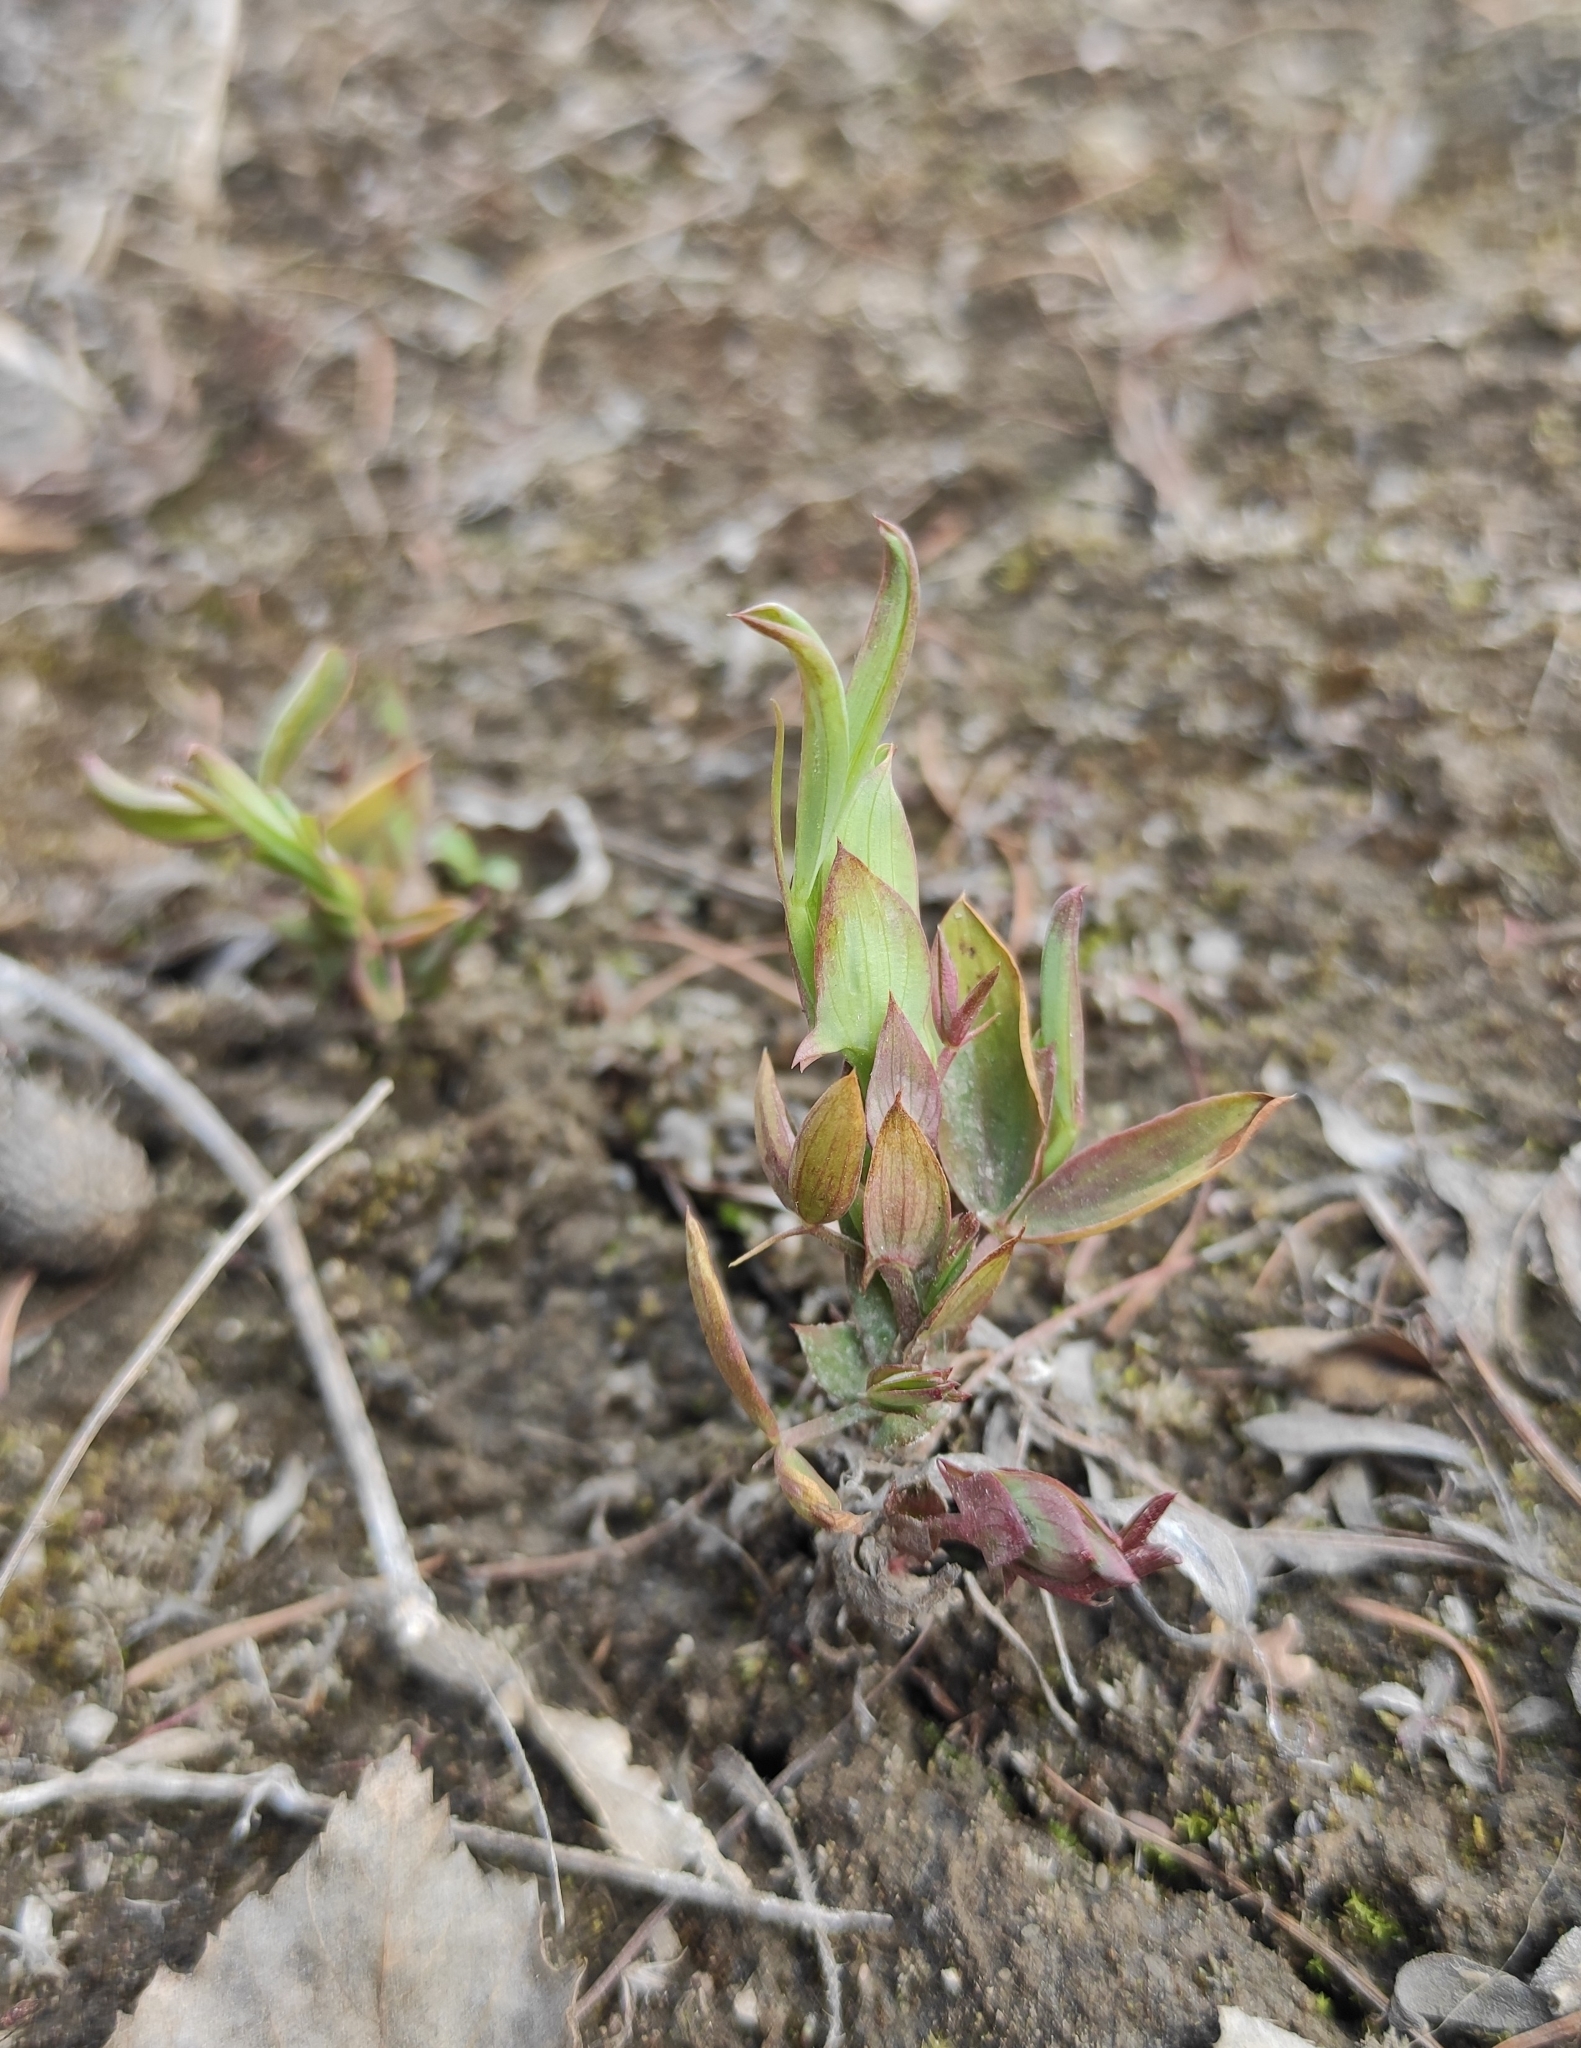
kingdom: Plantae
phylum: Tracheophyta
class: Magnoliopsida
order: Fabales
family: Fabaceae
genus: Lathyrus
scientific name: Lathyrus pratensis
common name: Meadow vetchling
